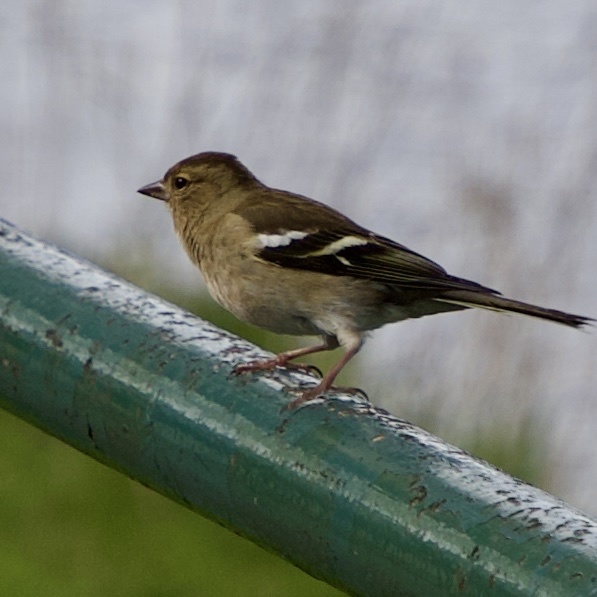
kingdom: Animalia
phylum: Chordata
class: Aves
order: Passeriformes
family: Fringillidae
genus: Fringilla
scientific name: Fringilla coelebs
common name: Common chaffinch
